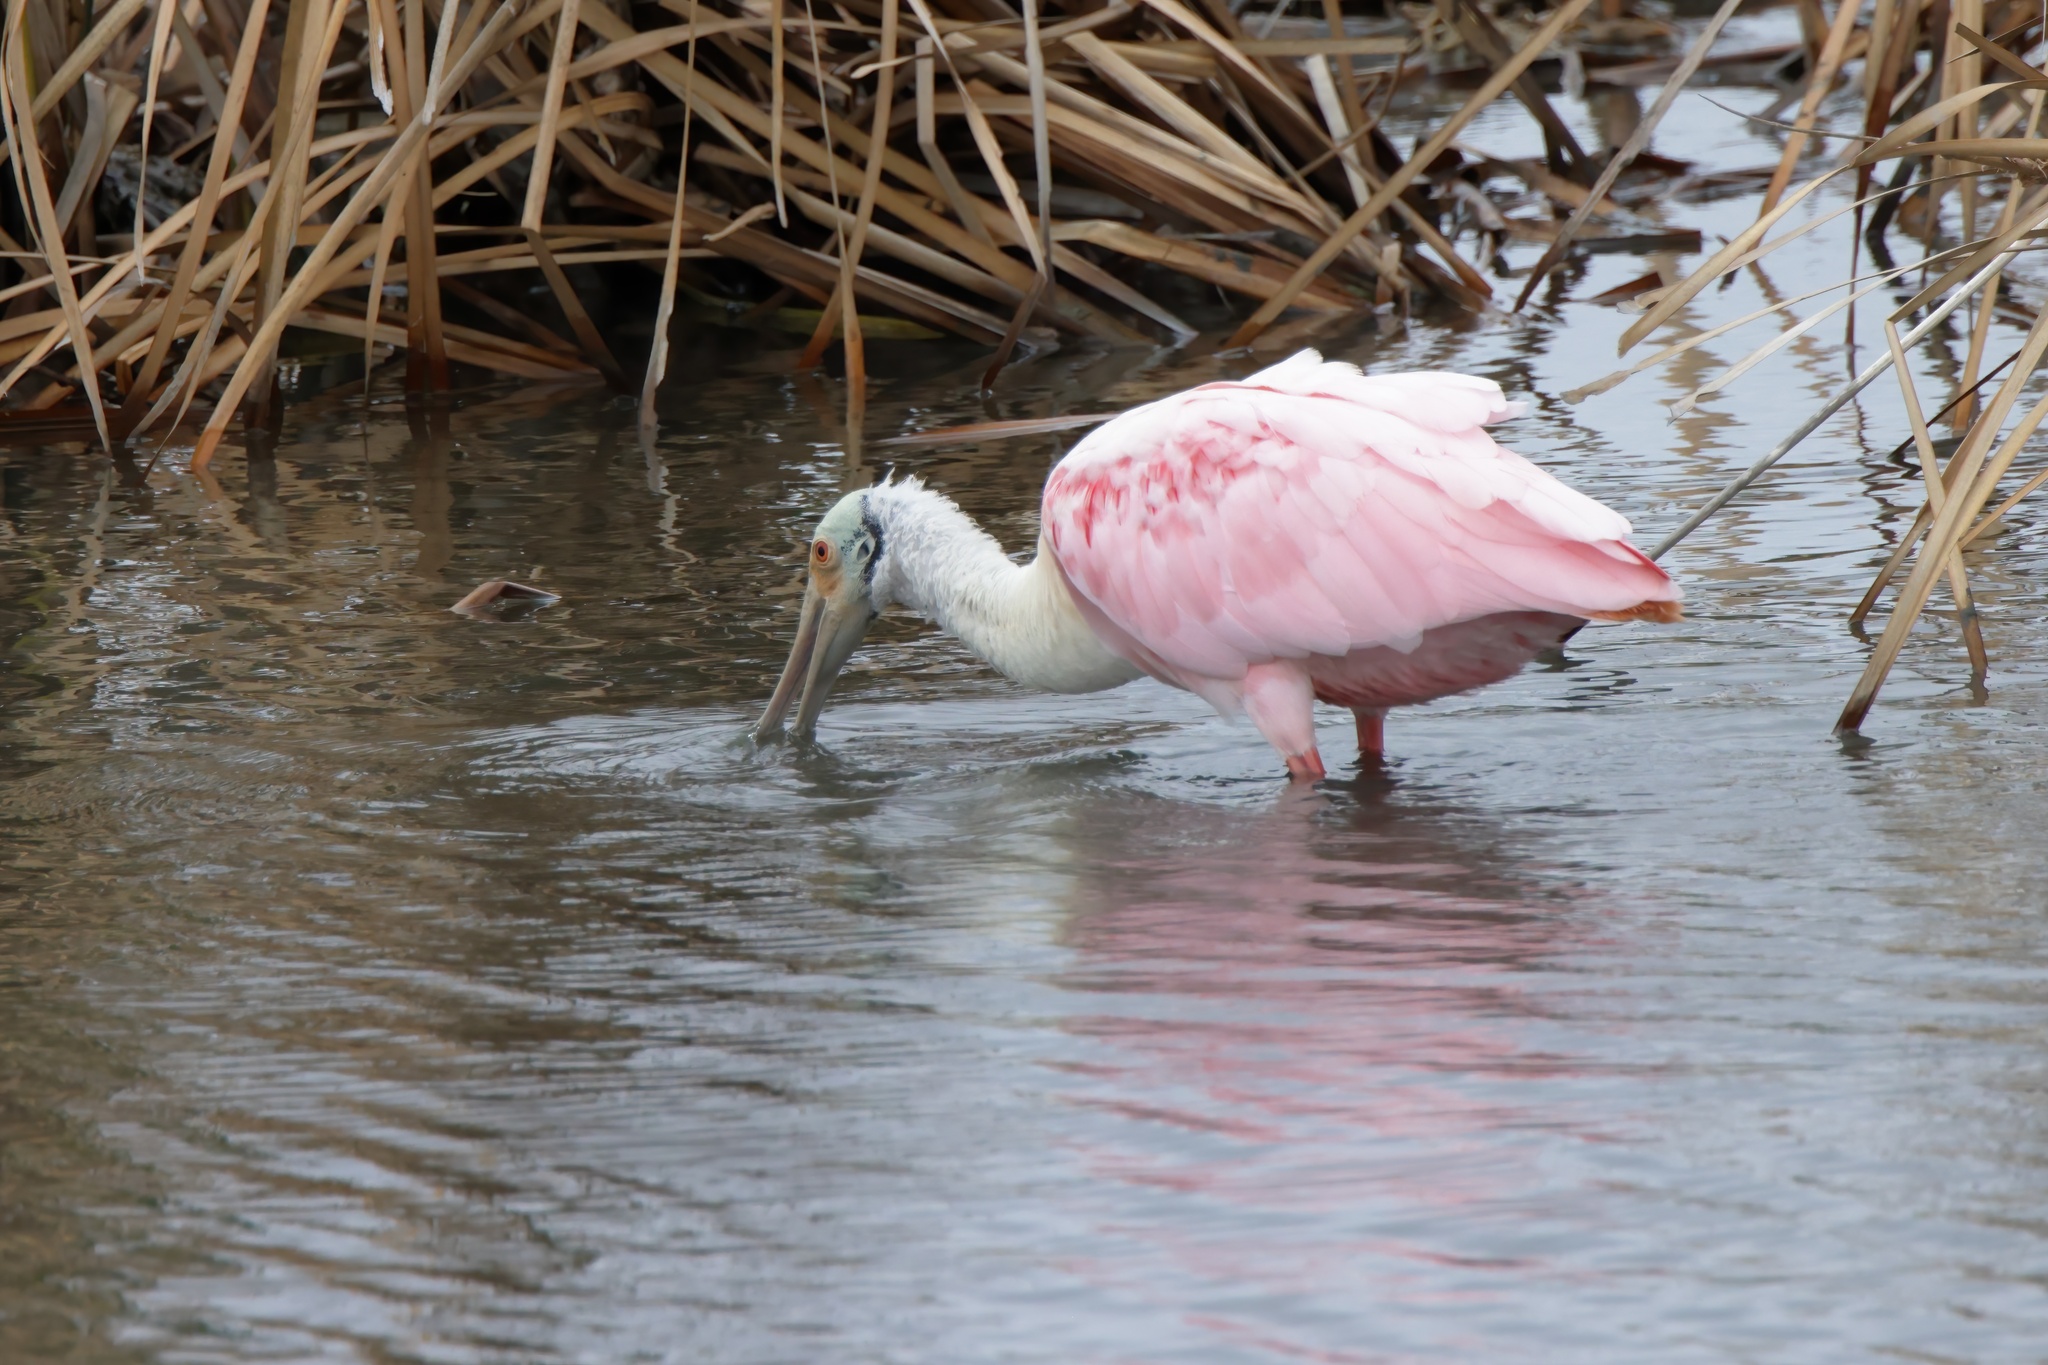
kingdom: Animalia
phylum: Chordata
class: Aves
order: Pelecaniformes
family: Threskiornithidae
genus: Platalea
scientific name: Platalea ajaja
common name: Roseate spoonbill
